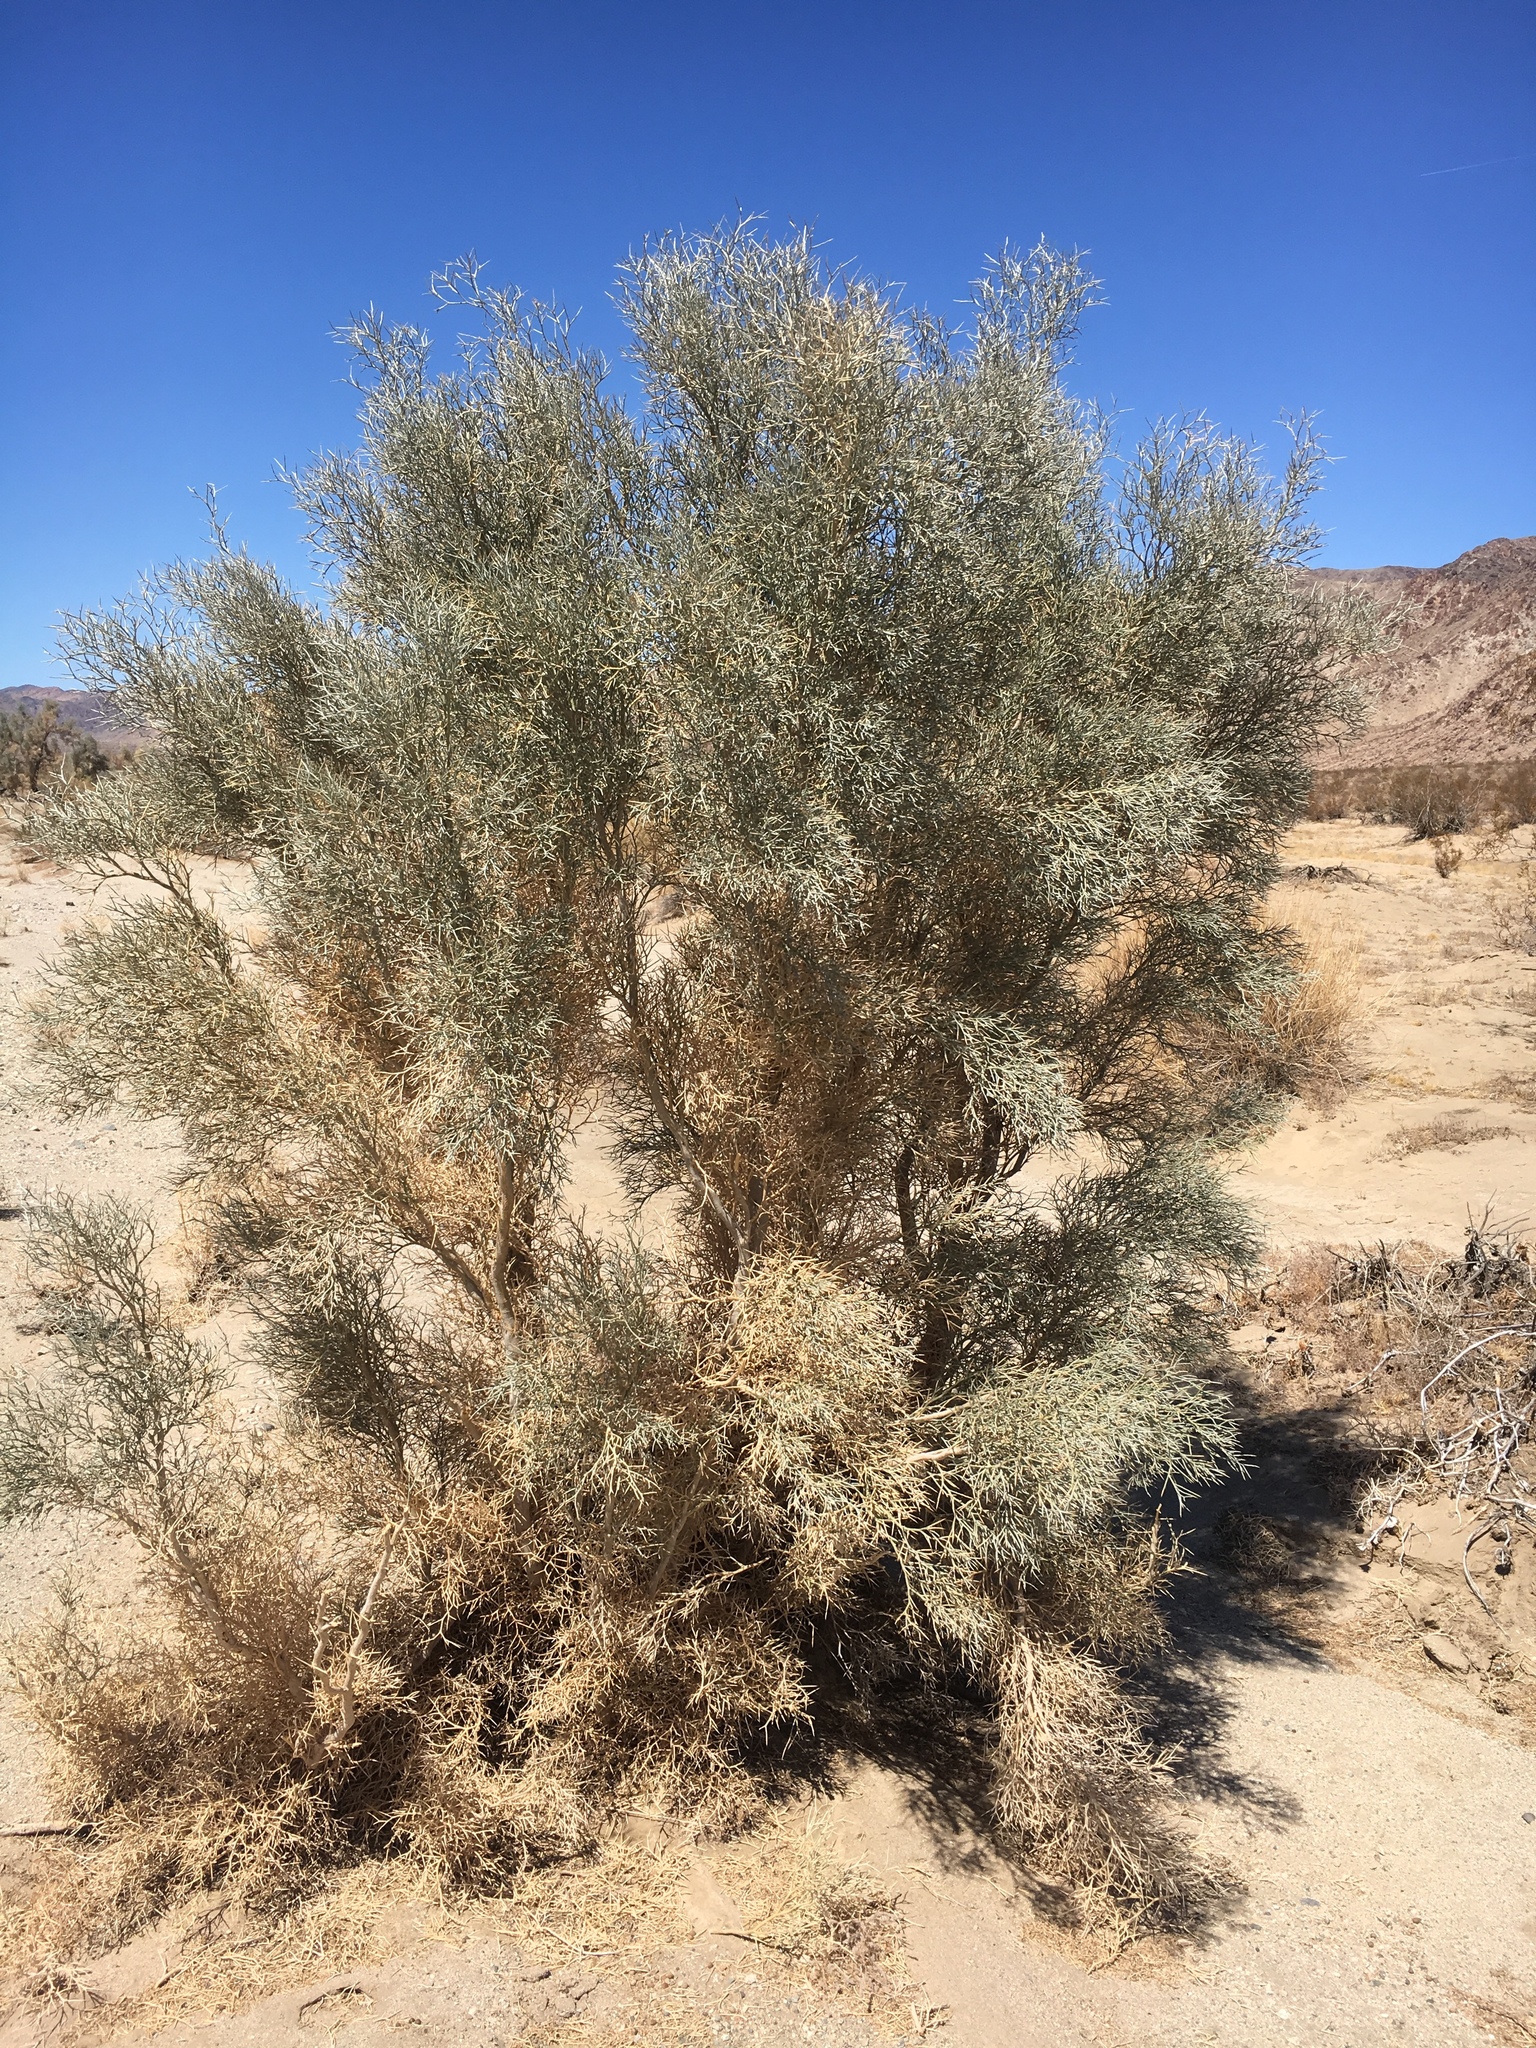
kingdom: Plantae
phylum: Tracheophyta
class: Magnoliopsida
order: Fabales
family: Fabaceae
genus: Psorothamnus
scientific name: Psorothamnus spinosus
